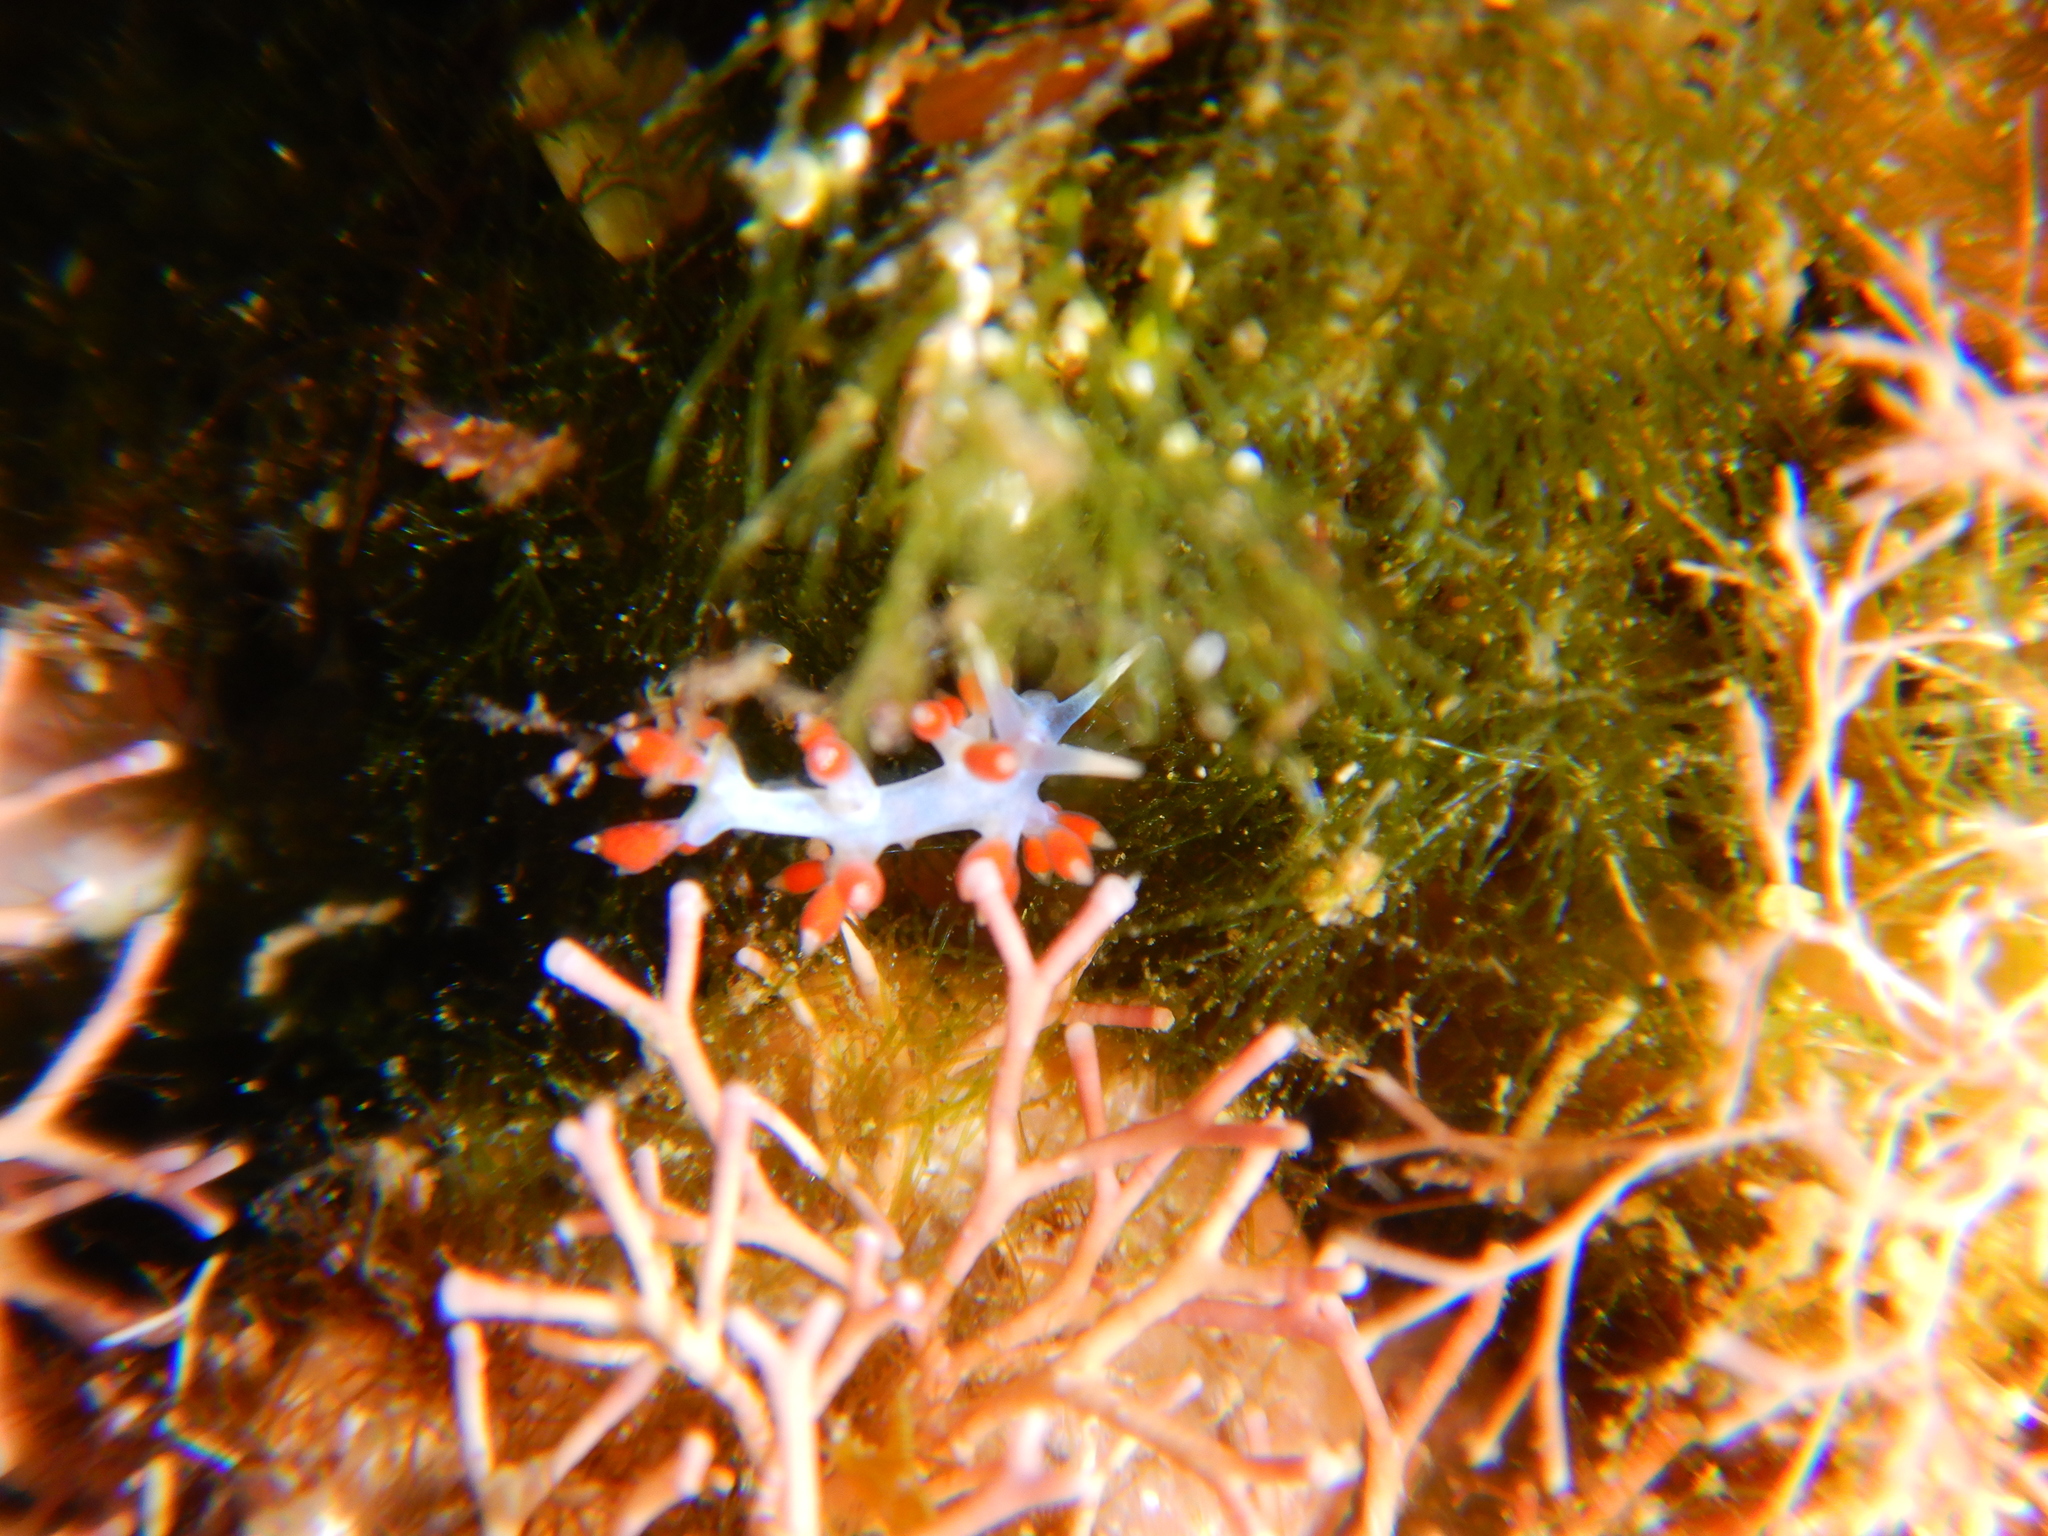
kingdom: Animalia
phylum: Mollusca
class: Gastropoda
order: Nudibranchia
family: Flabellinidae
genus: Calmella
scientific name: Calmella cavolini
